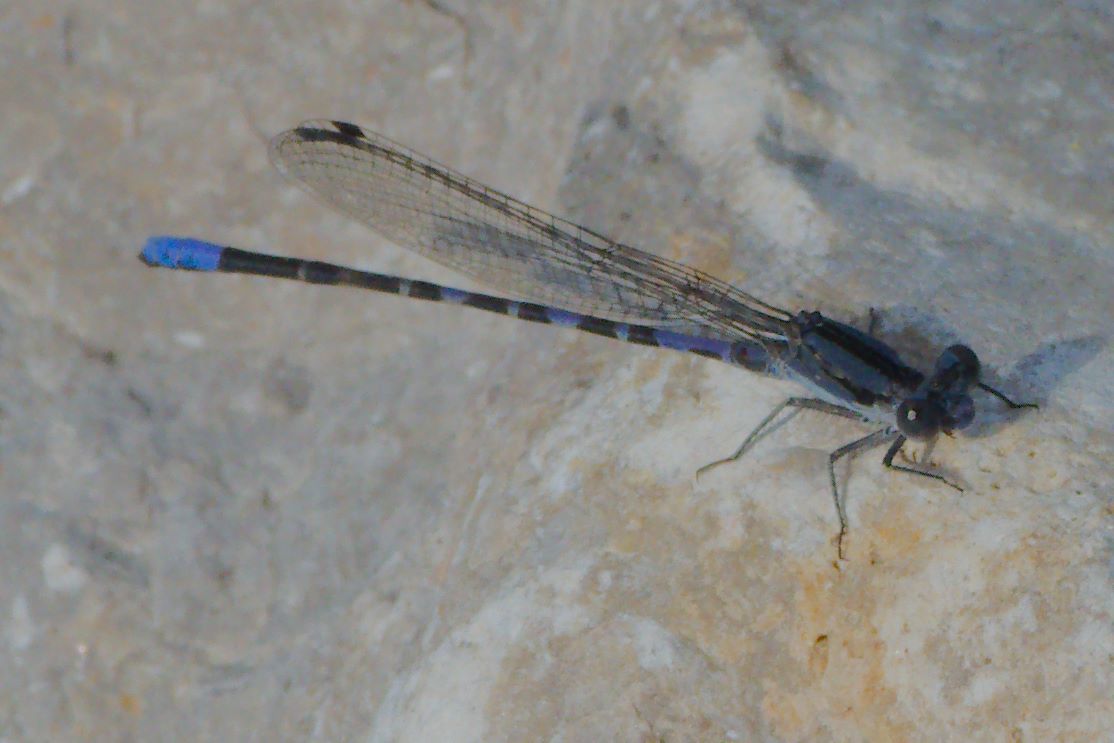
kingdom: Animalia
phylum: Arthropoda
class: Insecta
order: Odonata
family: Coenagrionidae
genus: Argia
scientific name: Argia immunda
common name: Kiowa dancer
